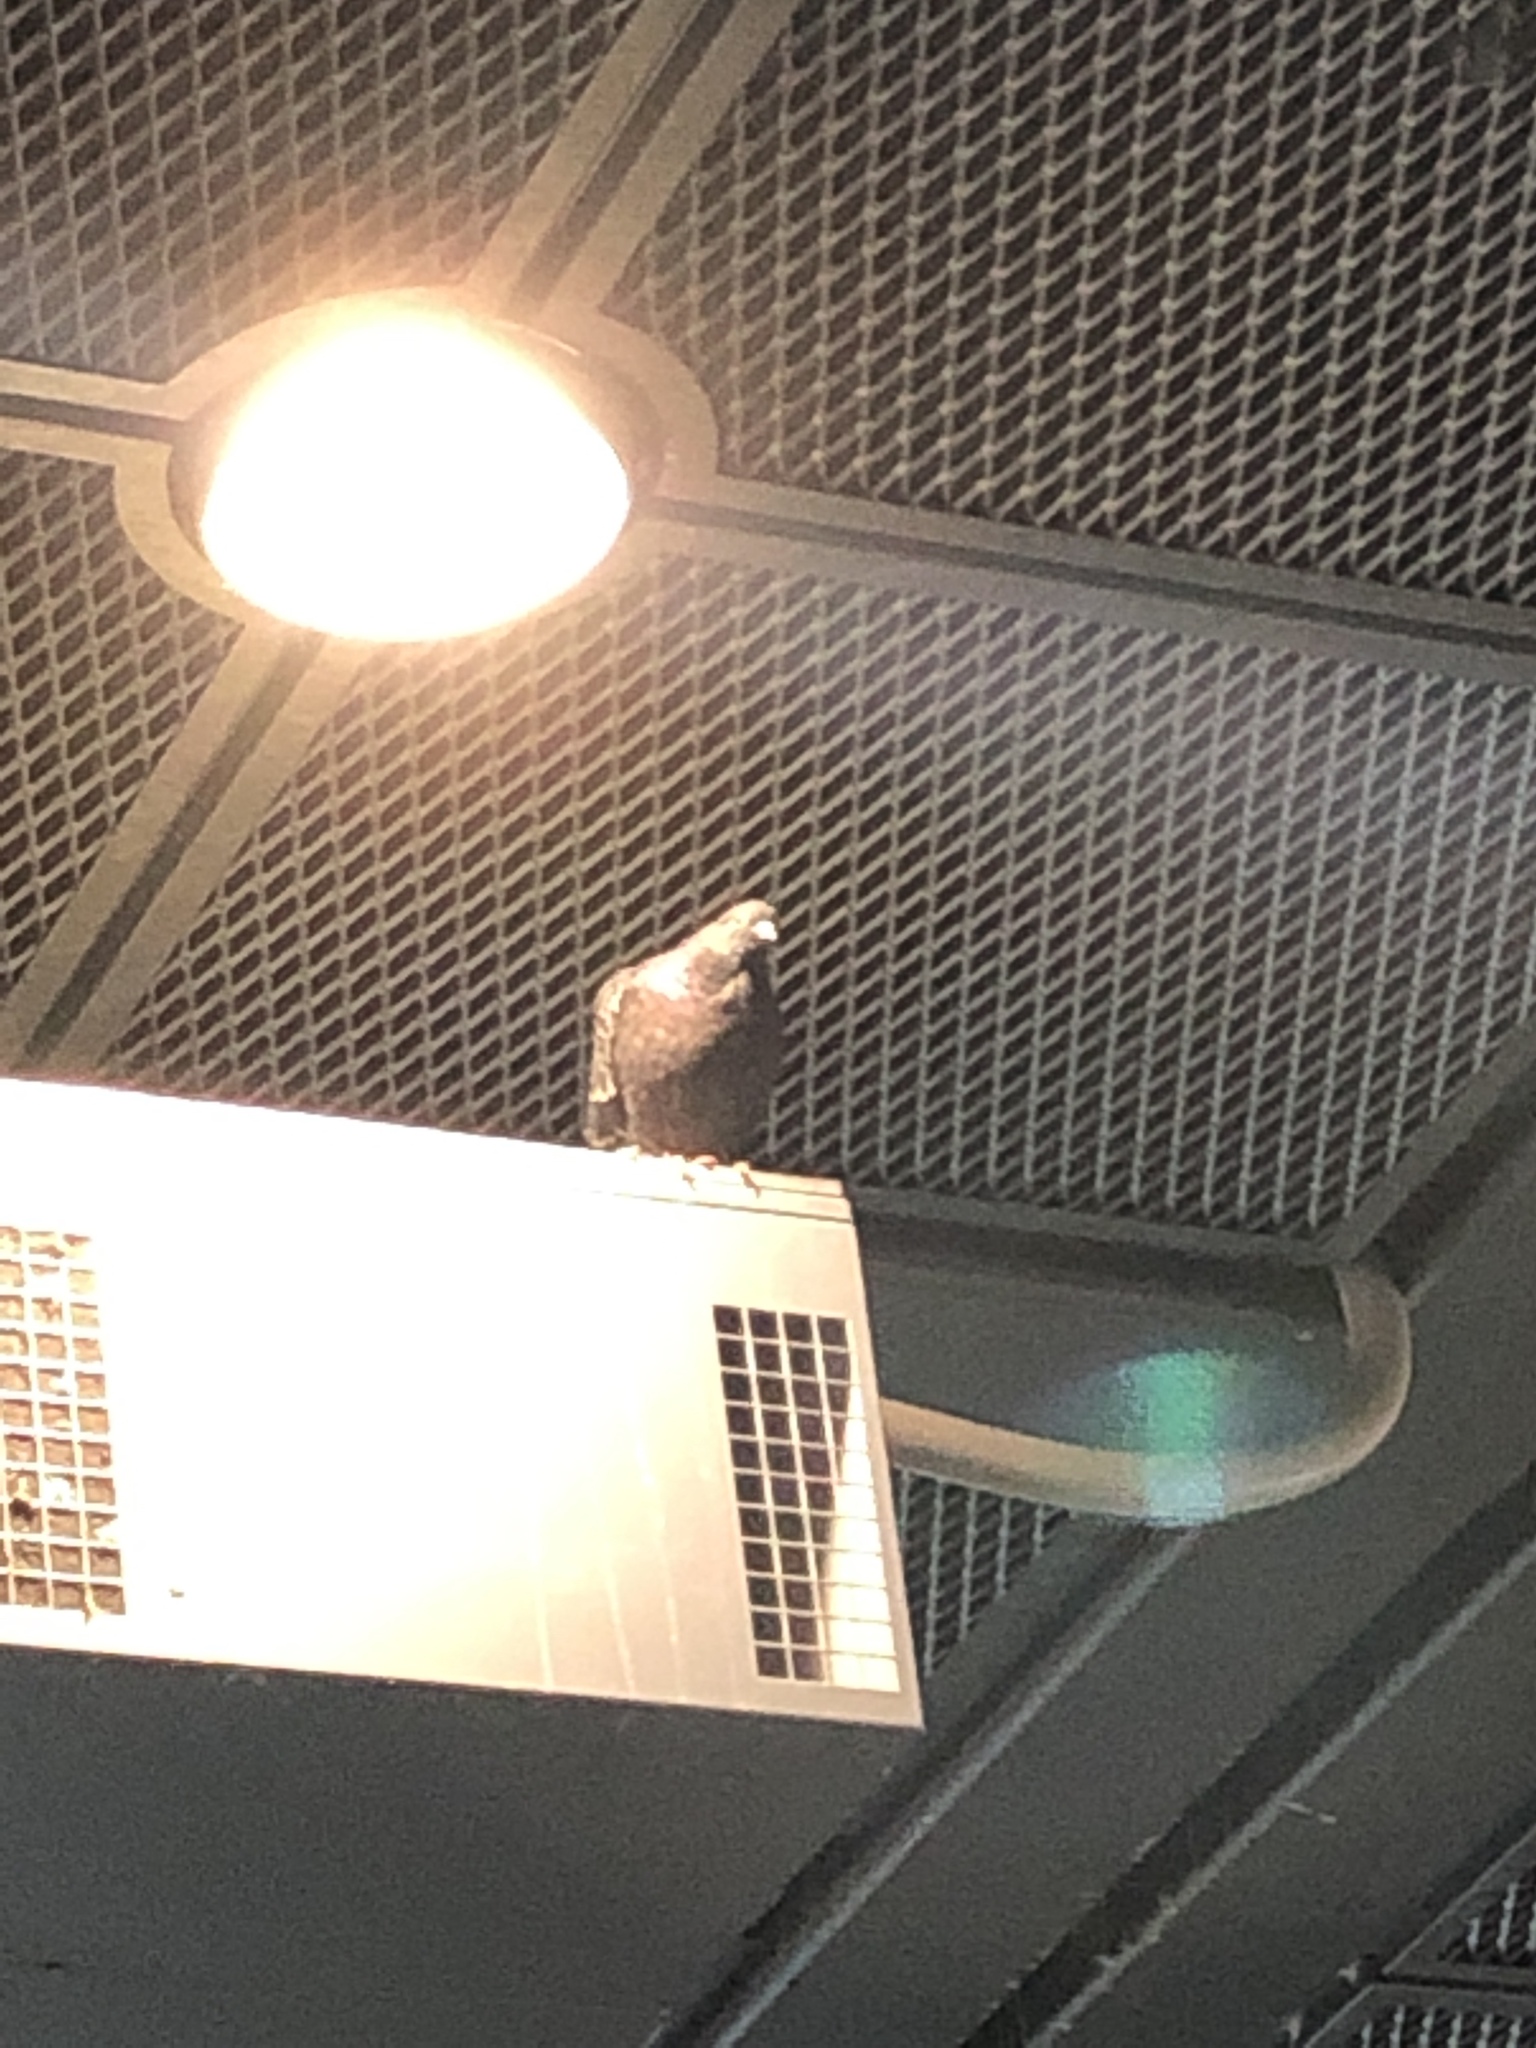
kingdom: Animalia
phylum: Chordata
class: Aves
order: Columbiformes
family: Columbidae
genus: Columba
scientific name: Columba livia
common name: Rock pigeon
